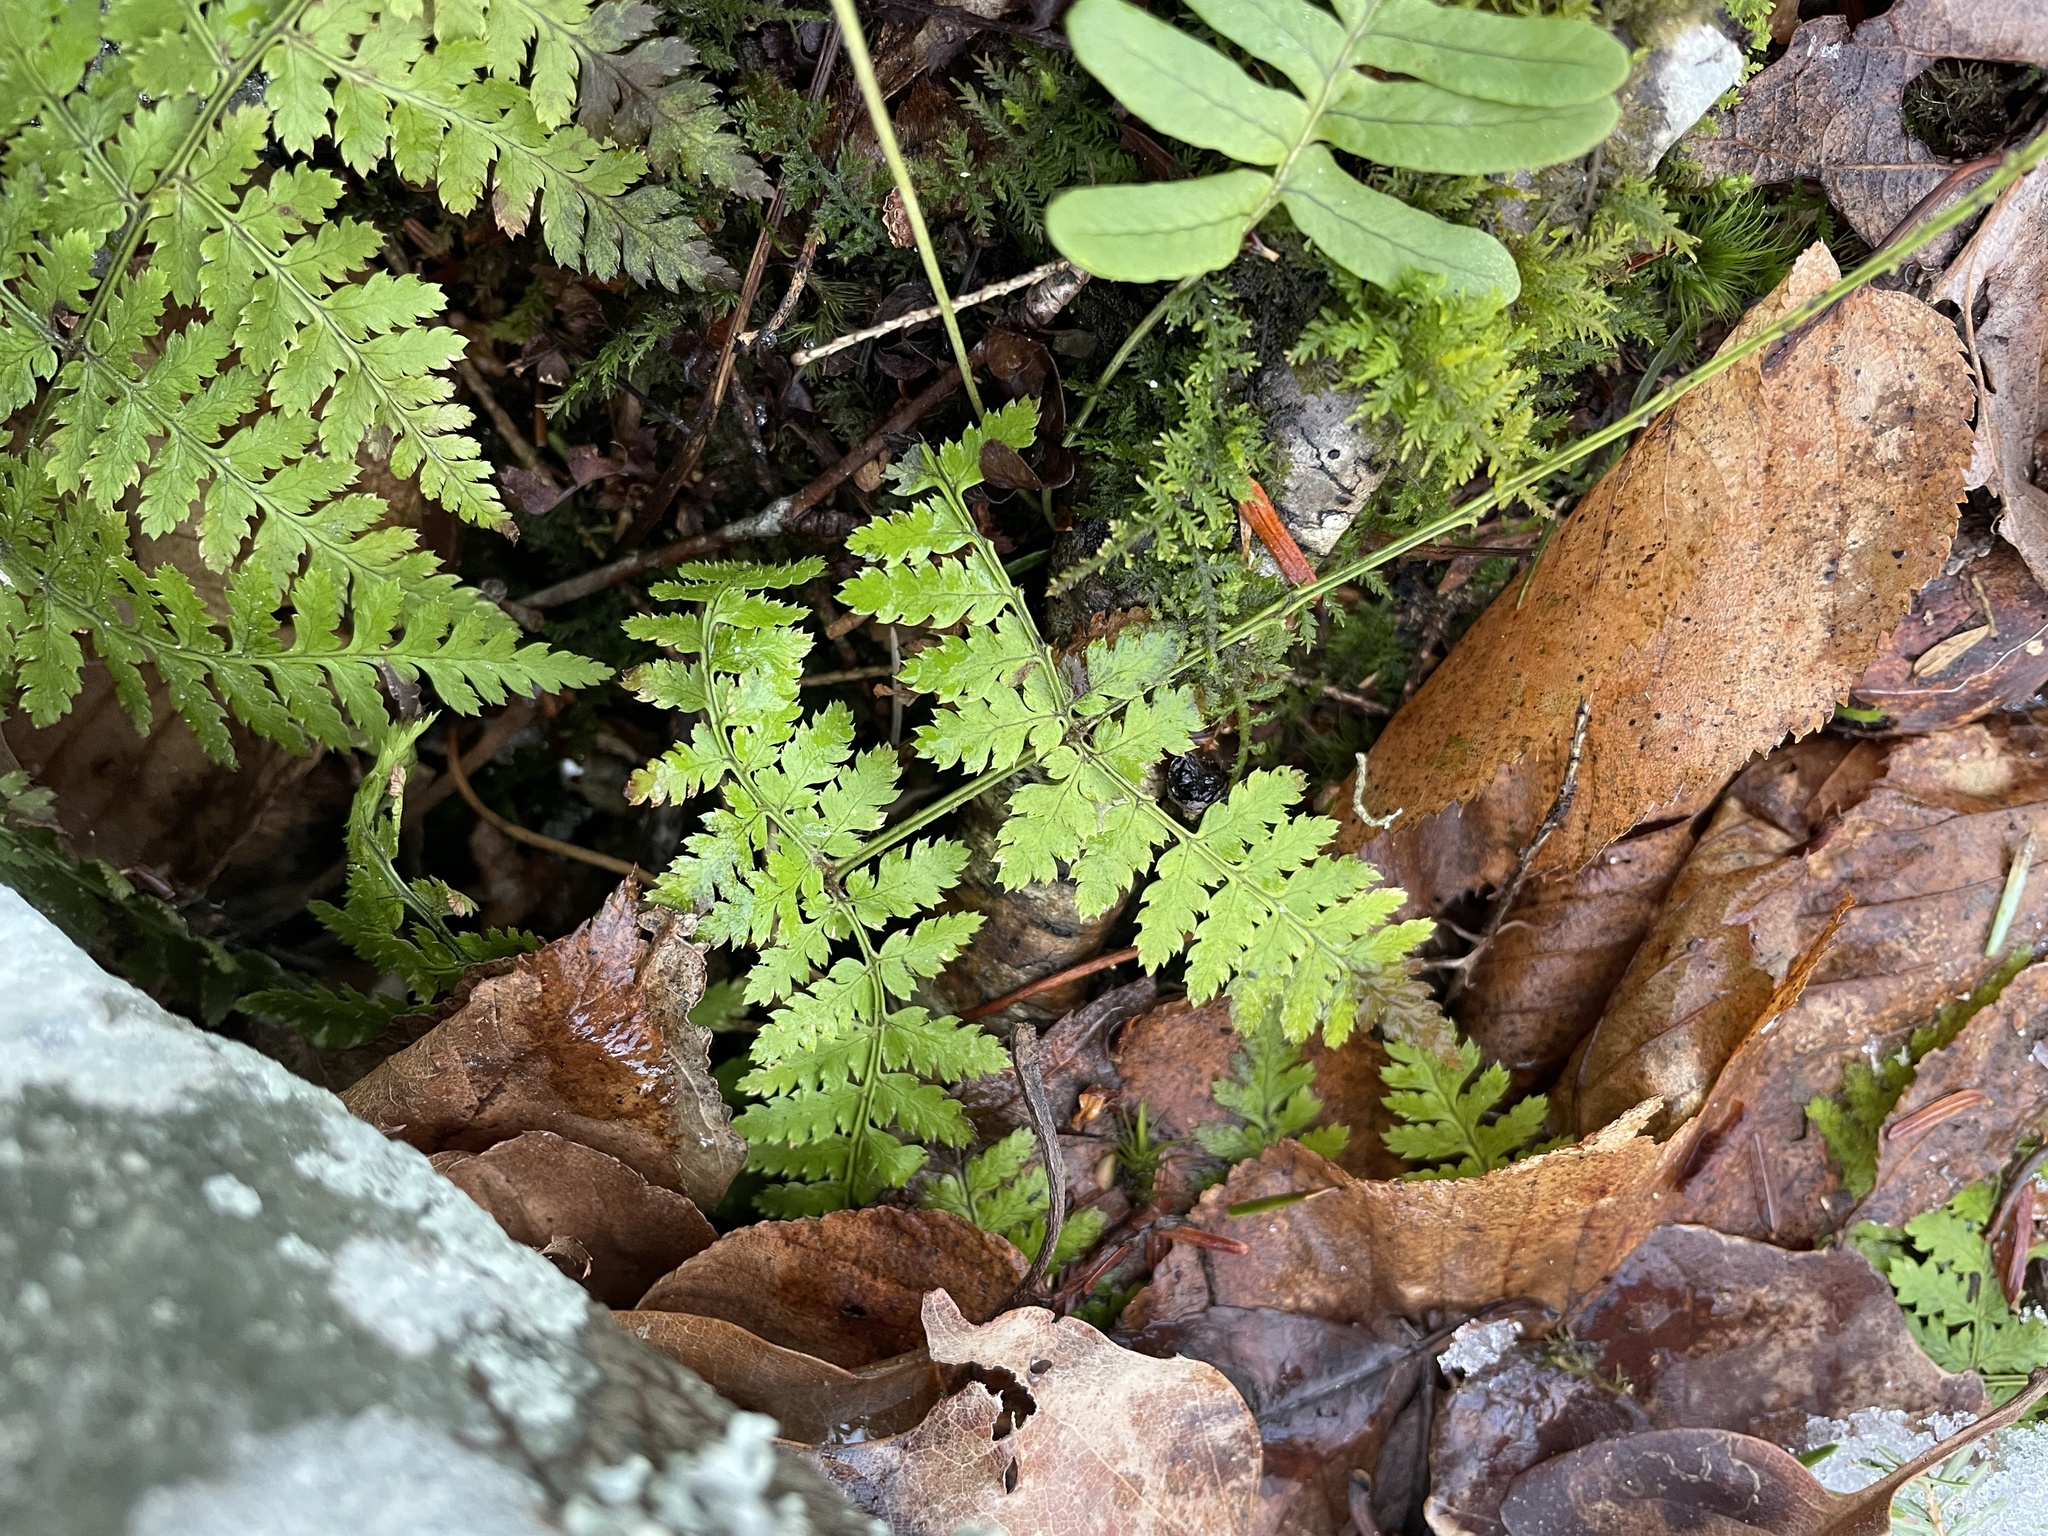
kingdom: Plantae
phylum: Tracheophyta
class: Polypodiopsida
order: Polypodiales
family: Dryopteridaceae
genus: Dryopteris
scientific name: Dryopteris intermedia
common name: Evergreen wood fern
